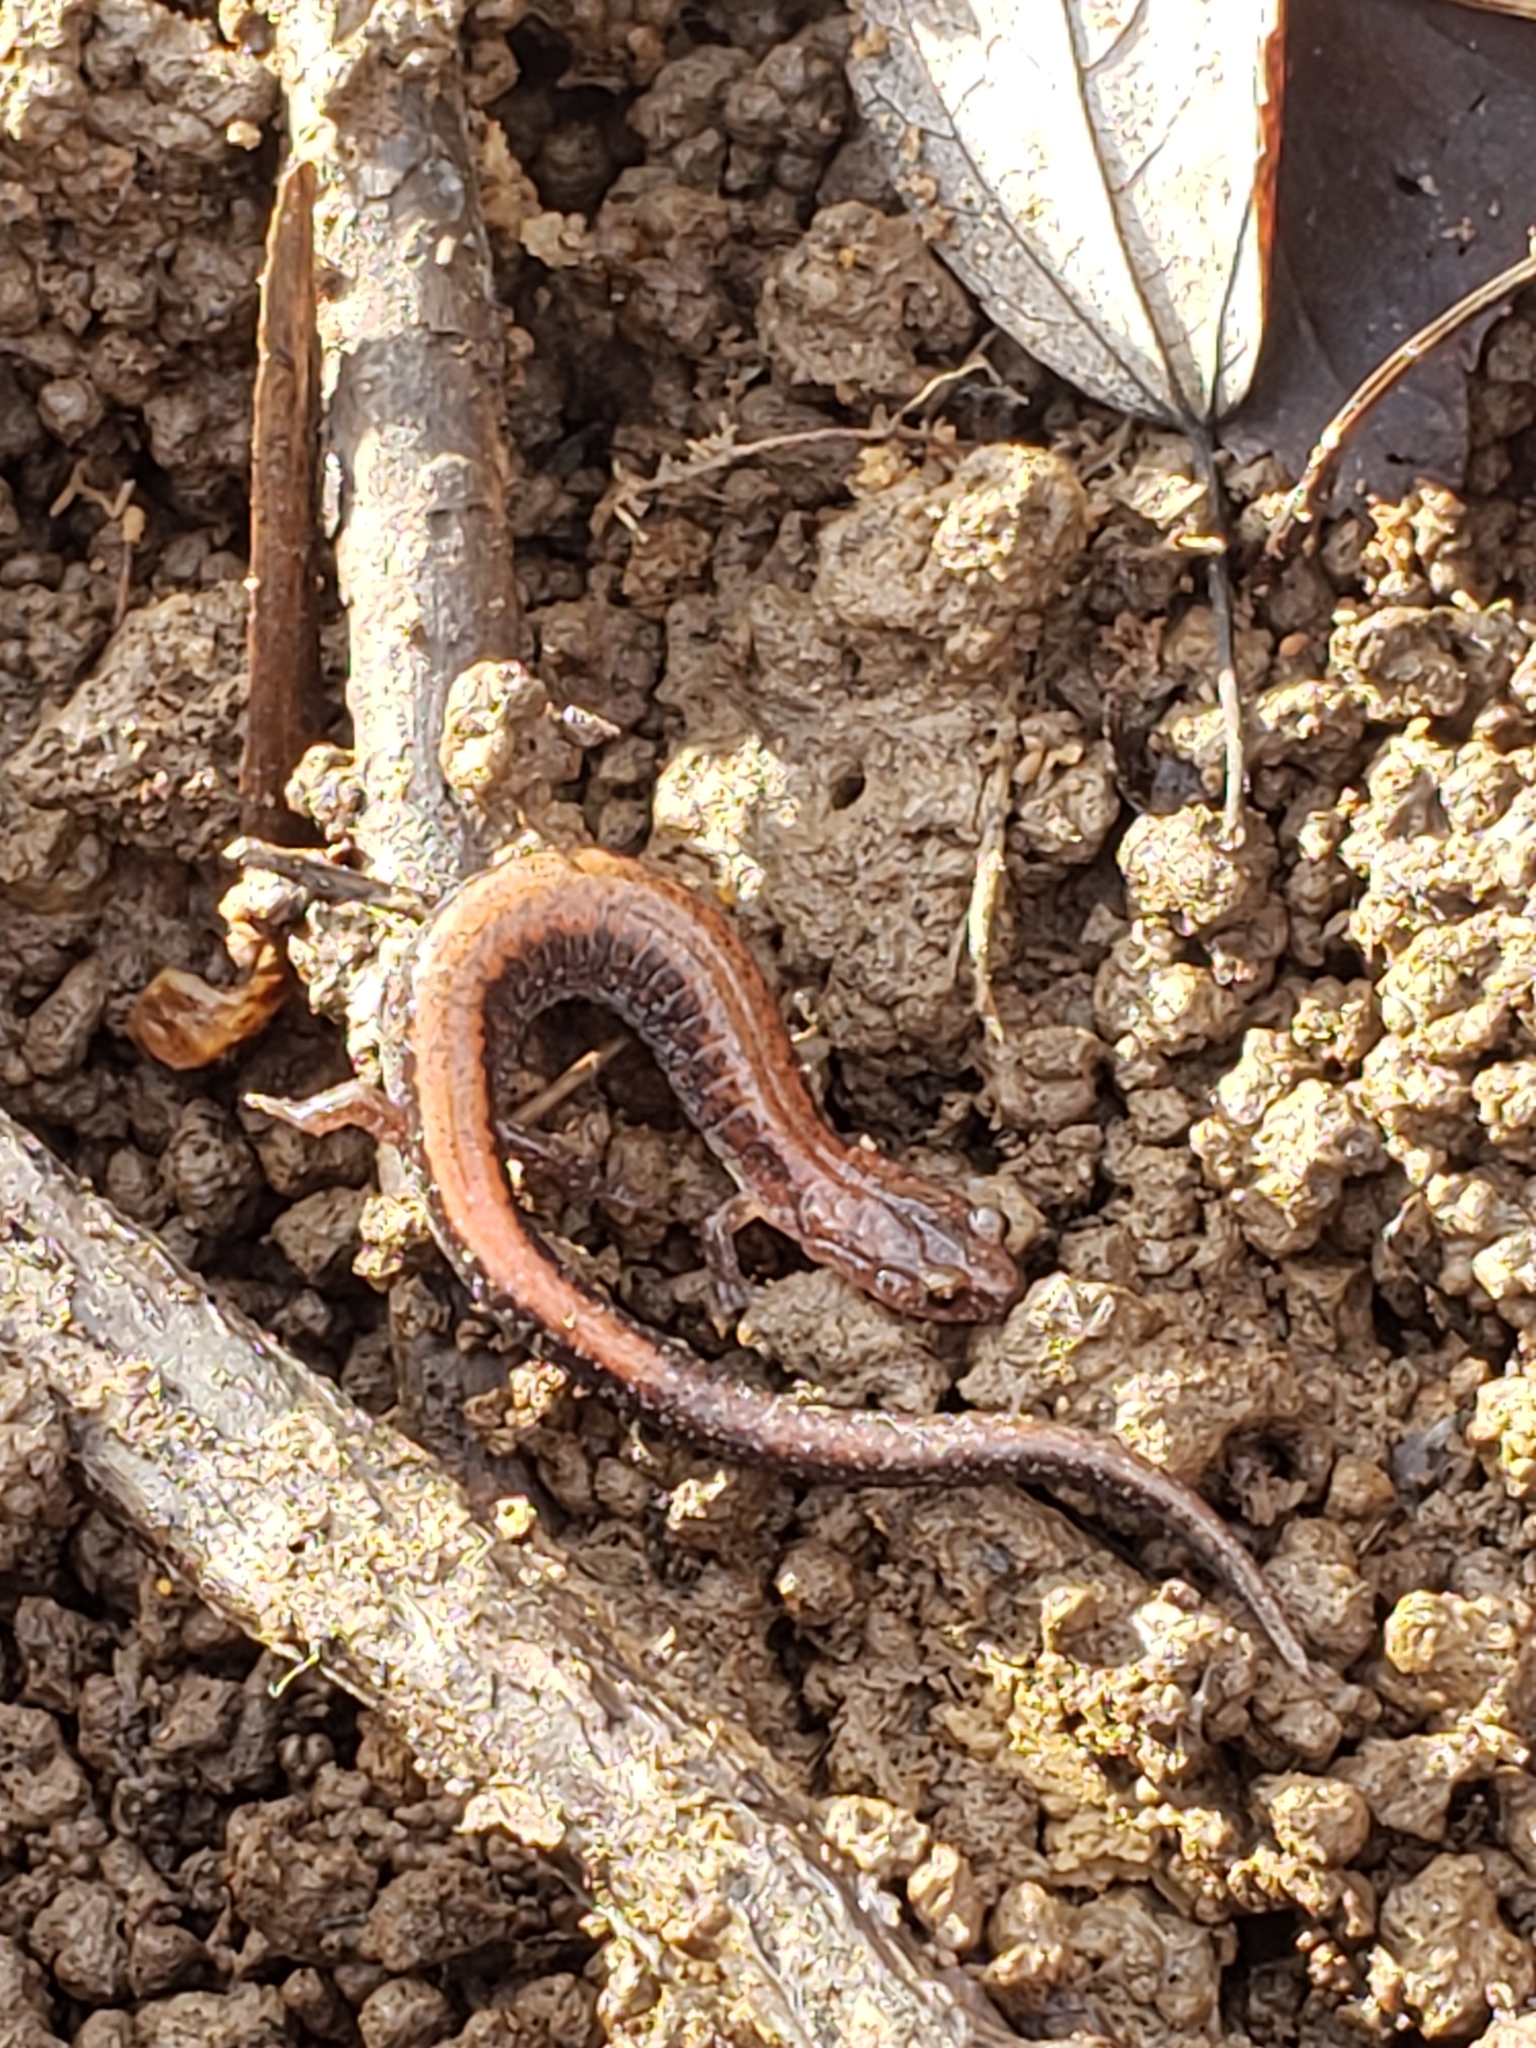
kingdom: Animalia
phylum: Chordata
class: Amphibia
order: Caudata
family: Plethodontidae
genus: Plethodon
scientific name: Plethodon cinereus
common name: Redback salamander
